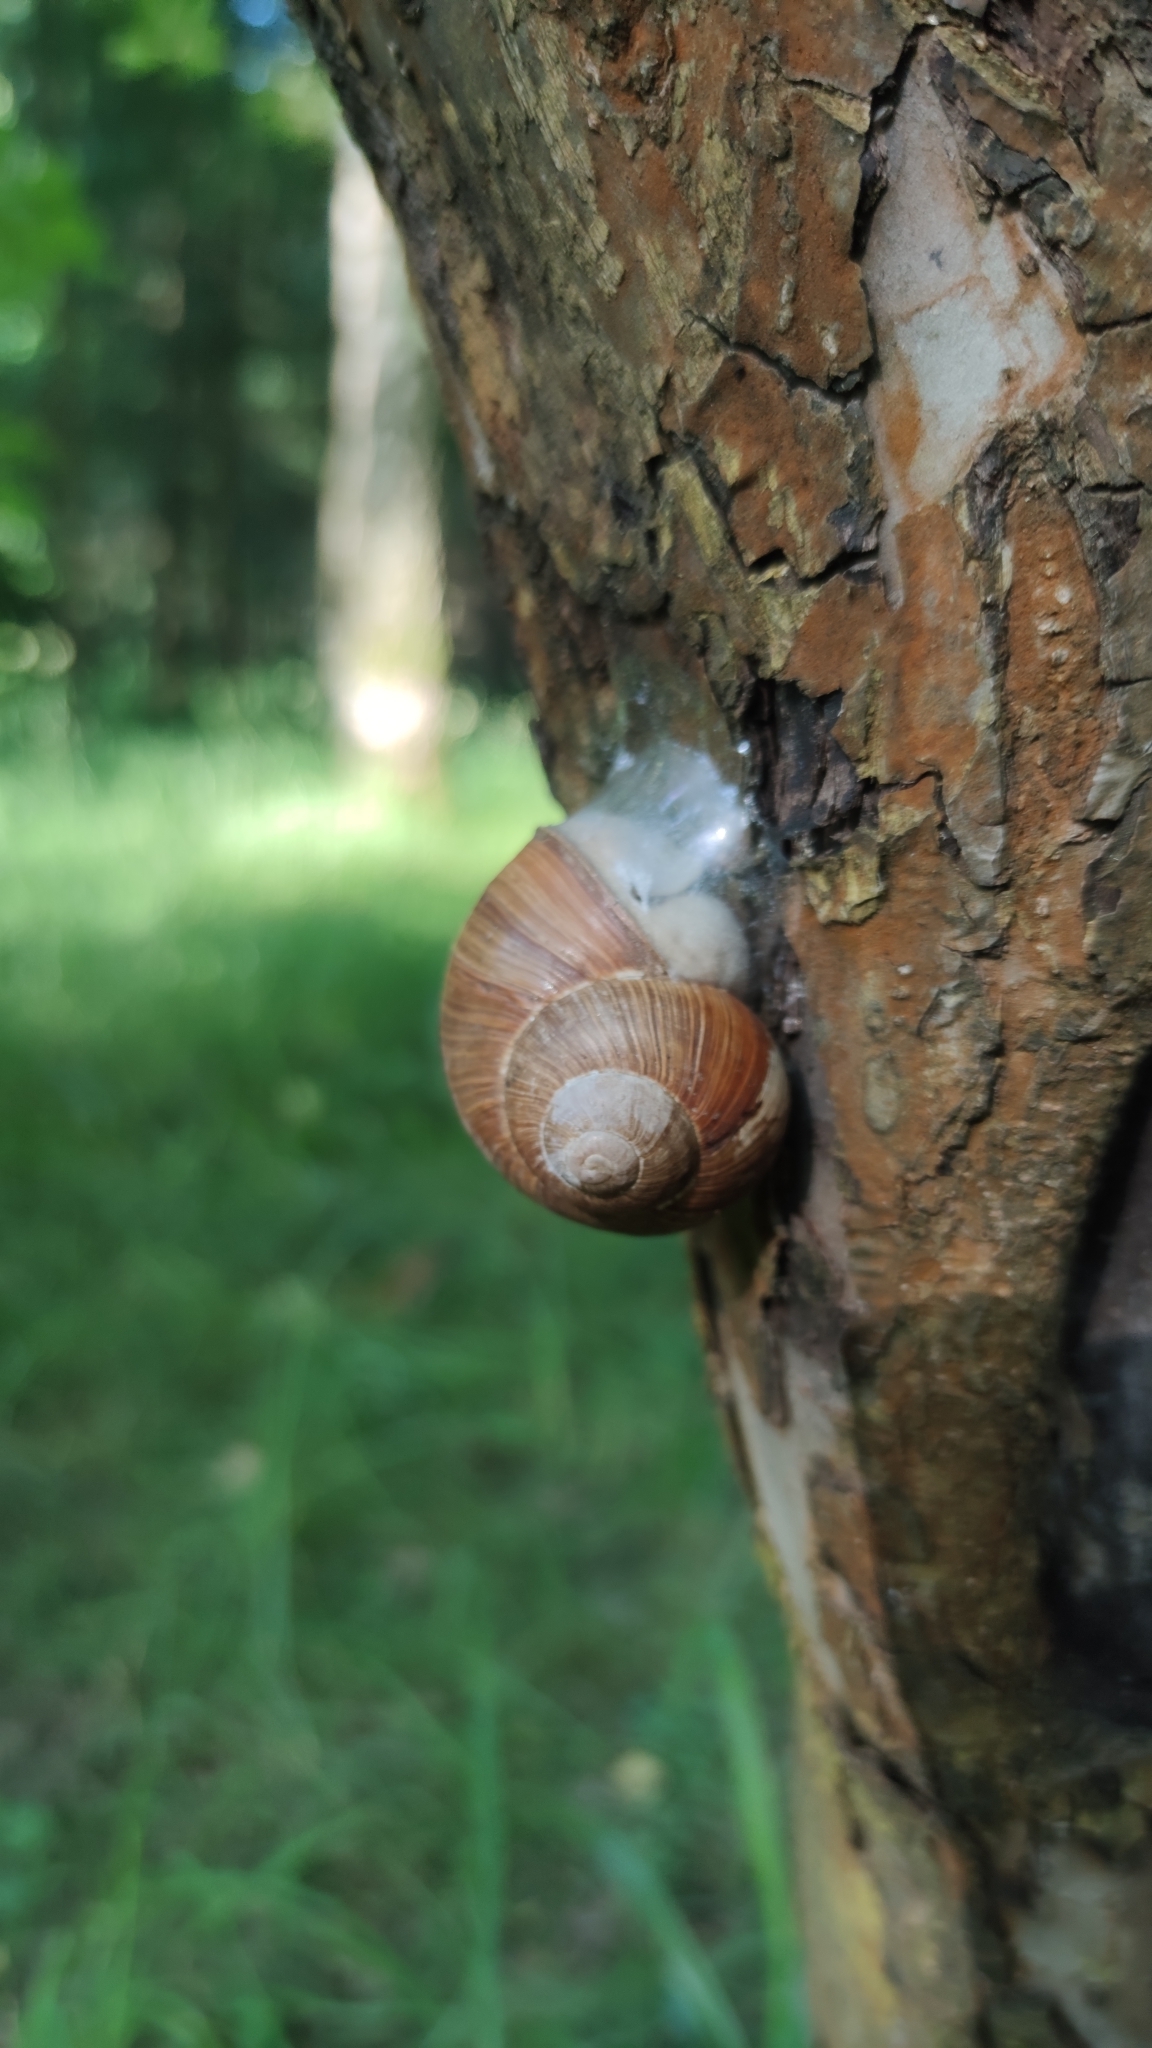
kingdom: Animalia
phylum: Mollusca
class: Gastropoda
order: Stylommatophora
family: Helicidae
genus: Helix
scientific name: Helix pomatia
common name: Roman snail
